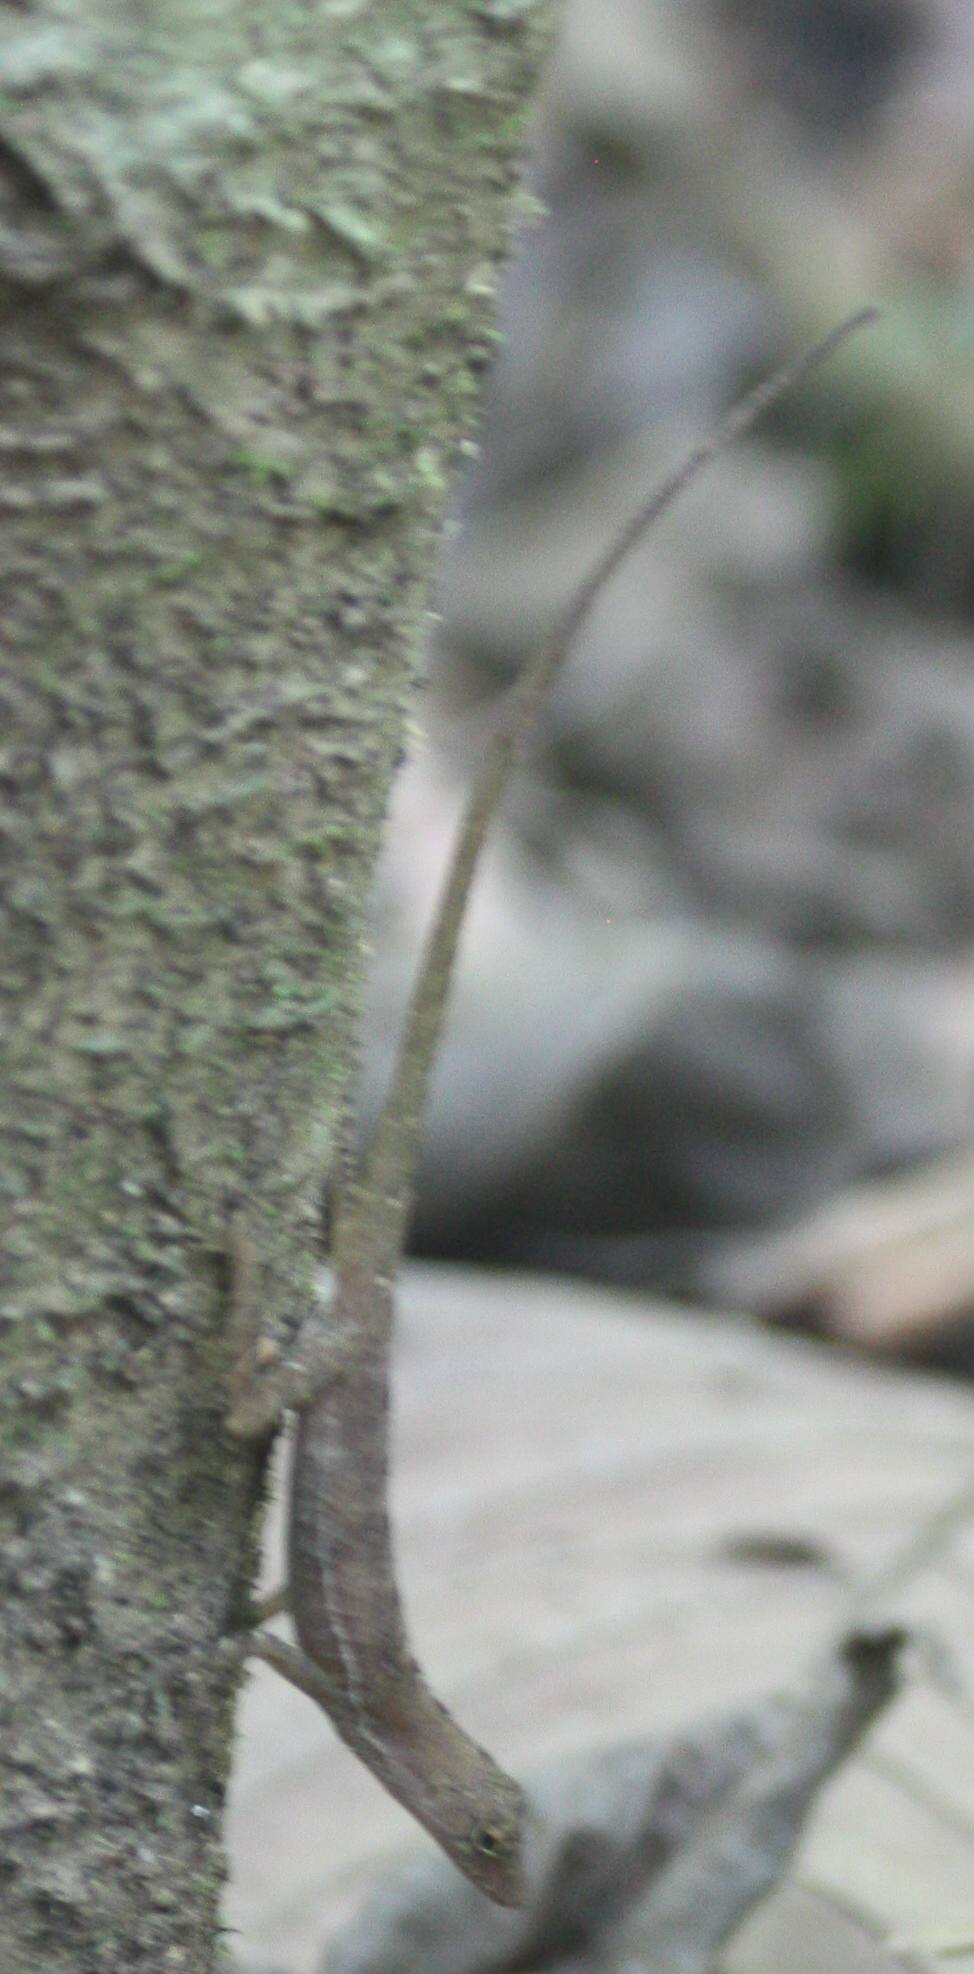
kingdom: Animalia
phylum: Chordata
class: Squamata
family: Dactyloidae
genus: Anolis
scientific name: Anolis osa
